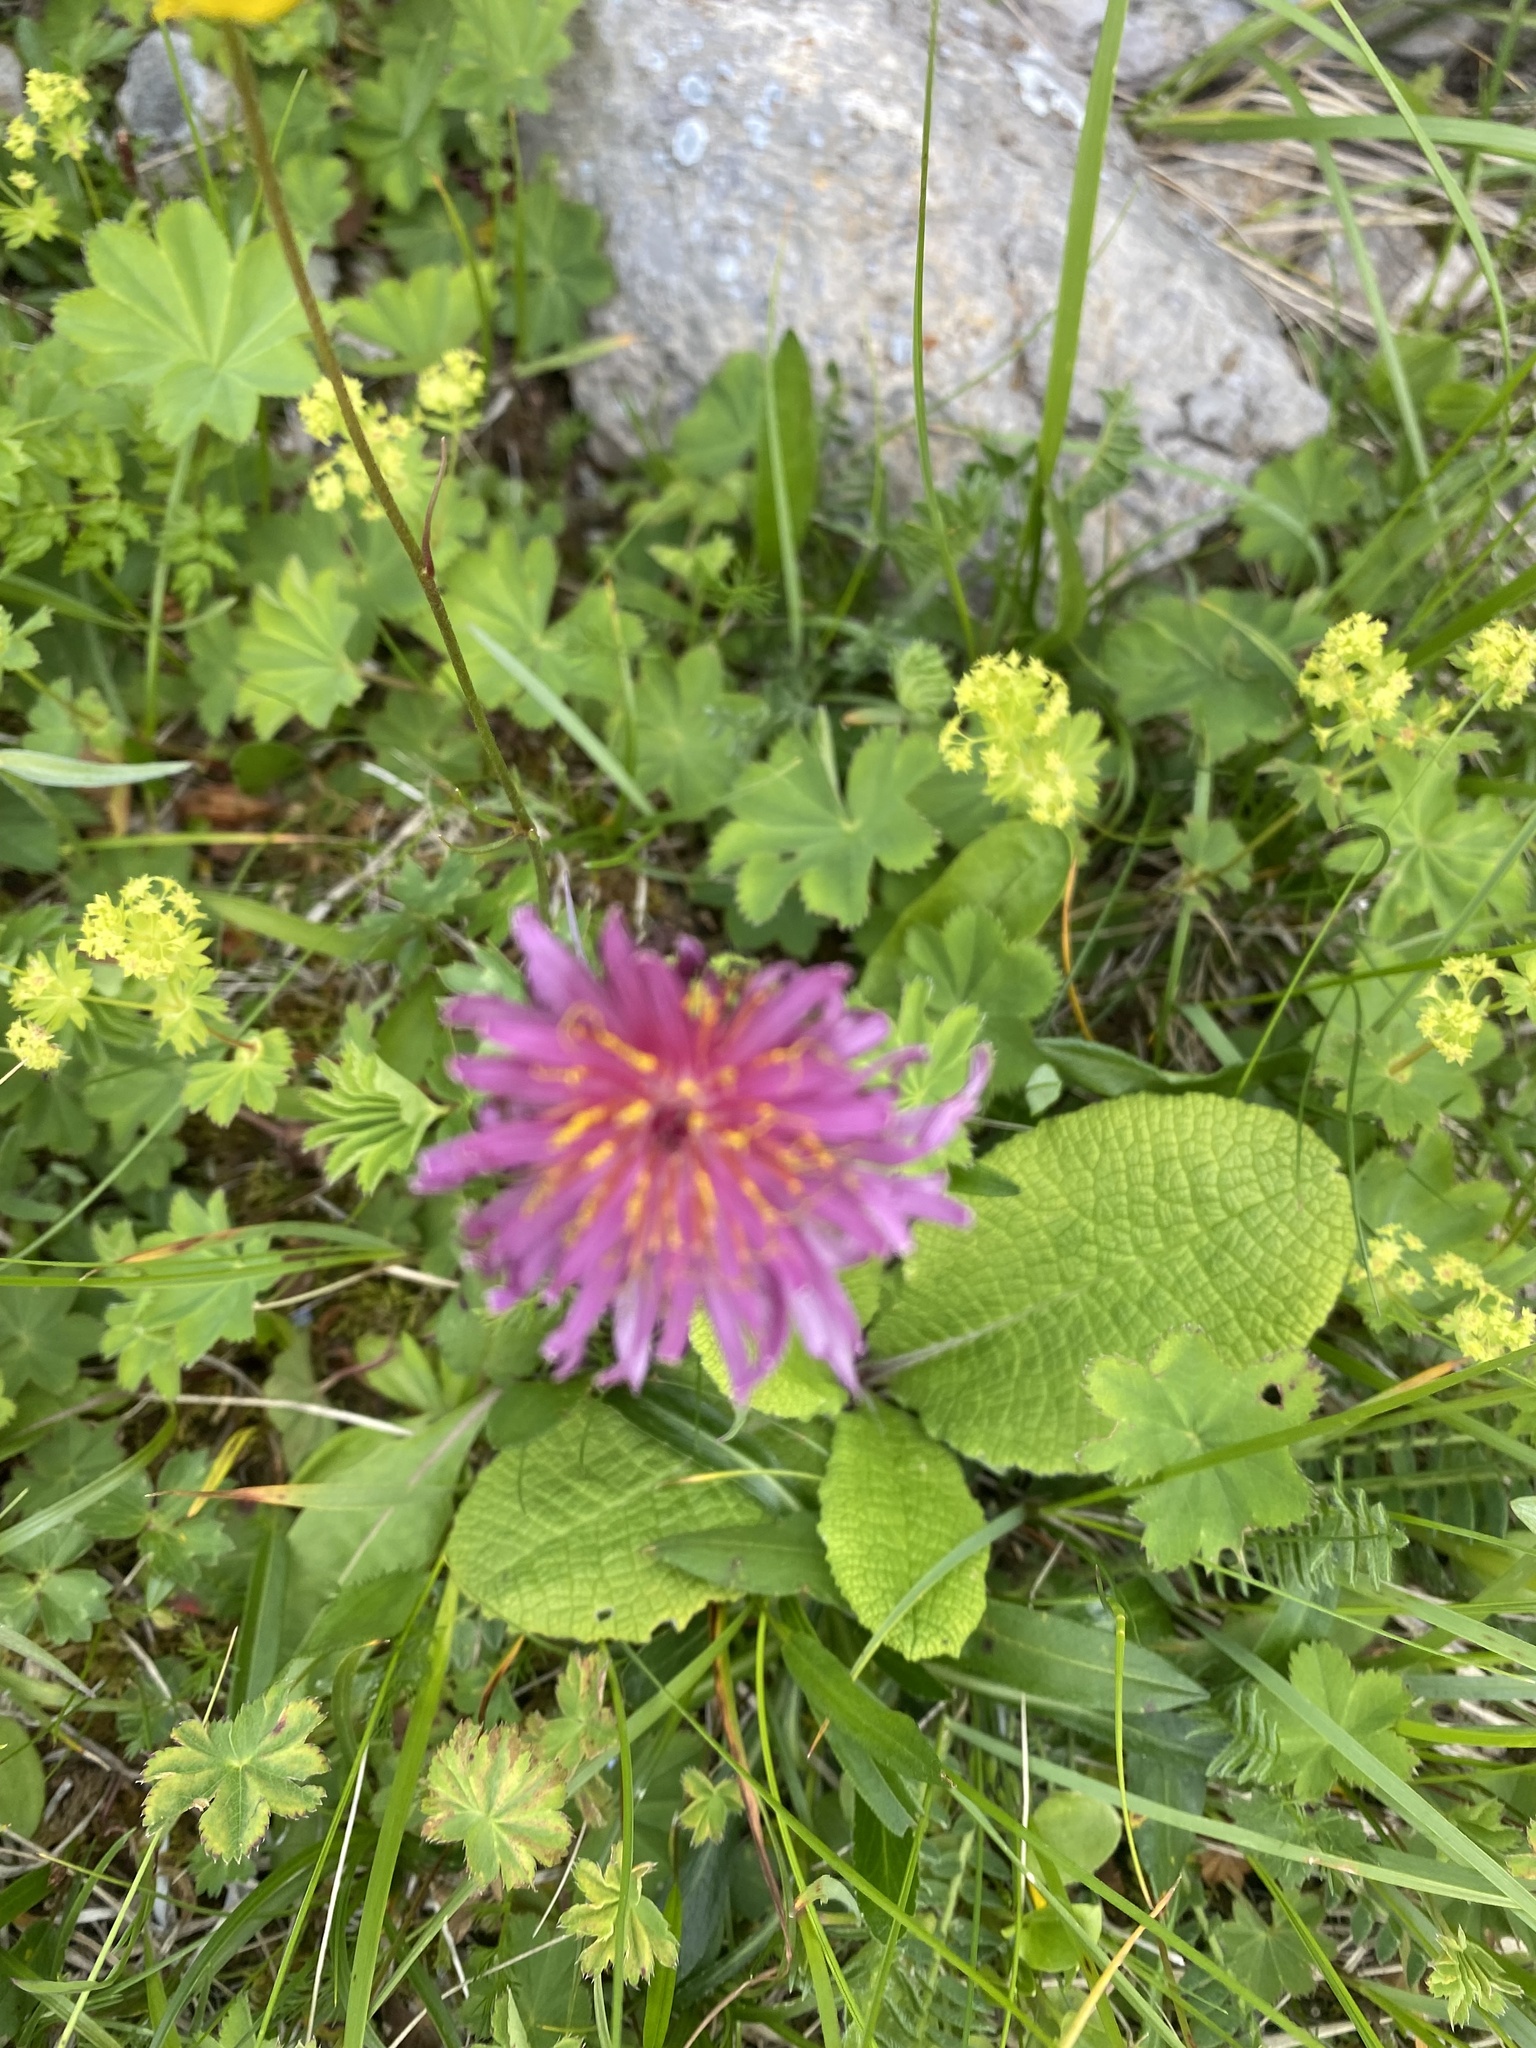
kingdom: Plantae
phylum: Tracheophyta
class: Magnoliopsida
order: Asterales
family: Asteraceae
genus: Taraxacum
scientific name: Taraxacum porphyranthum
